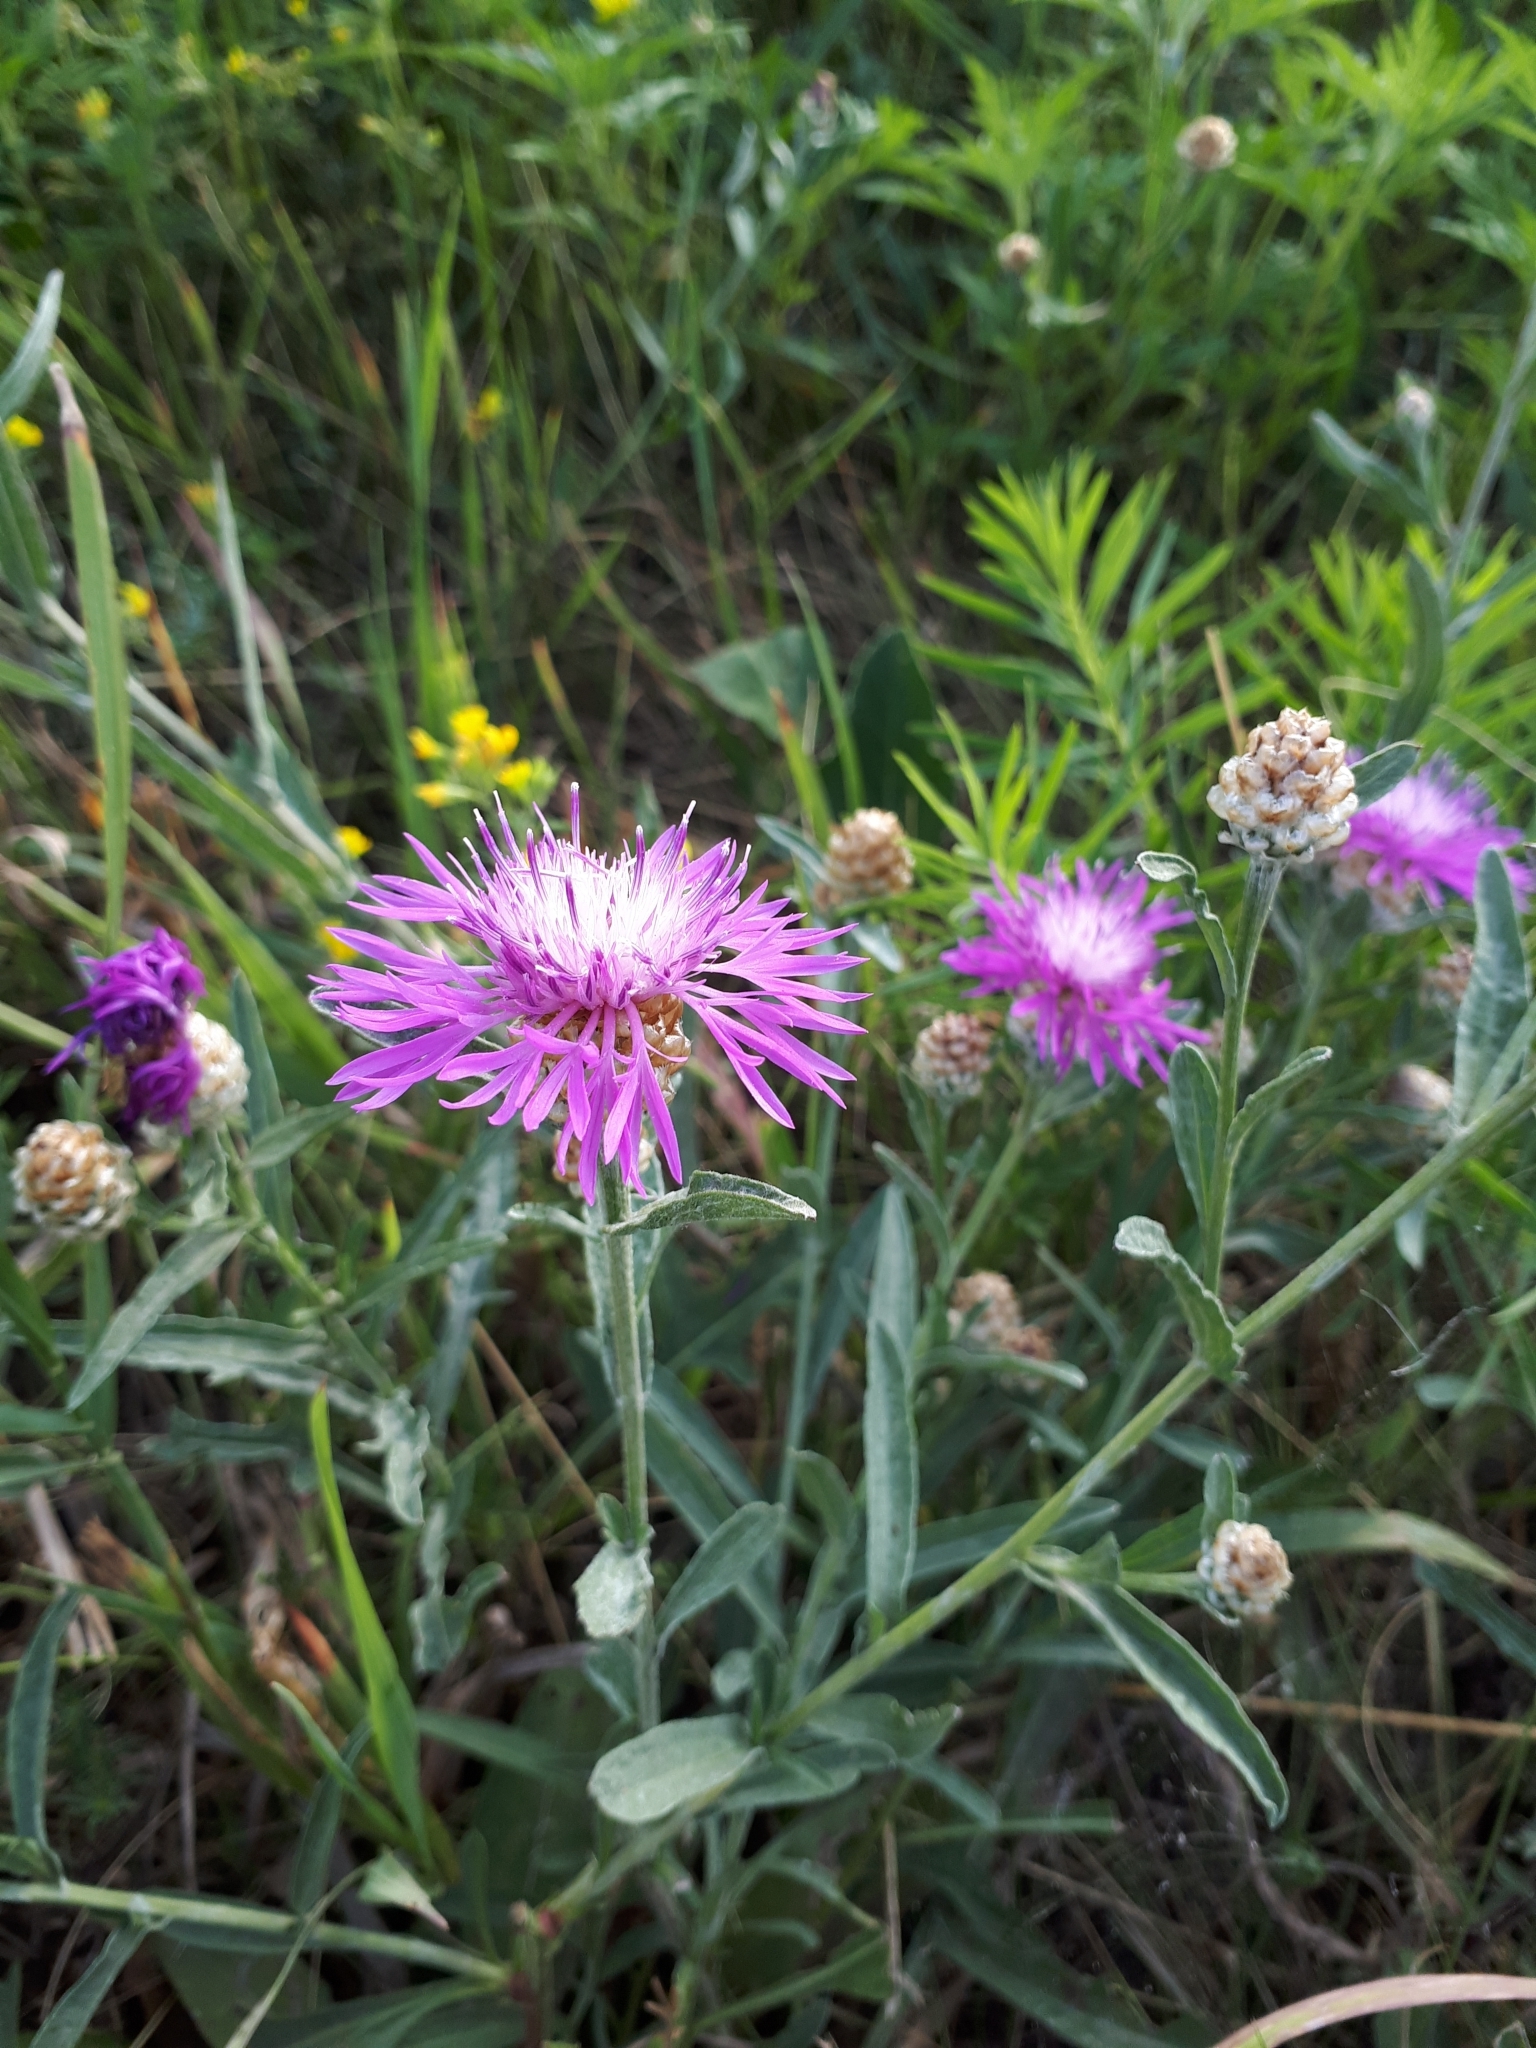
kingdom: Plantae
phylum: Tracheophyta
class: Magnoliopsida
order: Asterales
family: Asteraceae
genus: Centaurea
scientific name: Centaurea jacea
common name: Brown knapweed
